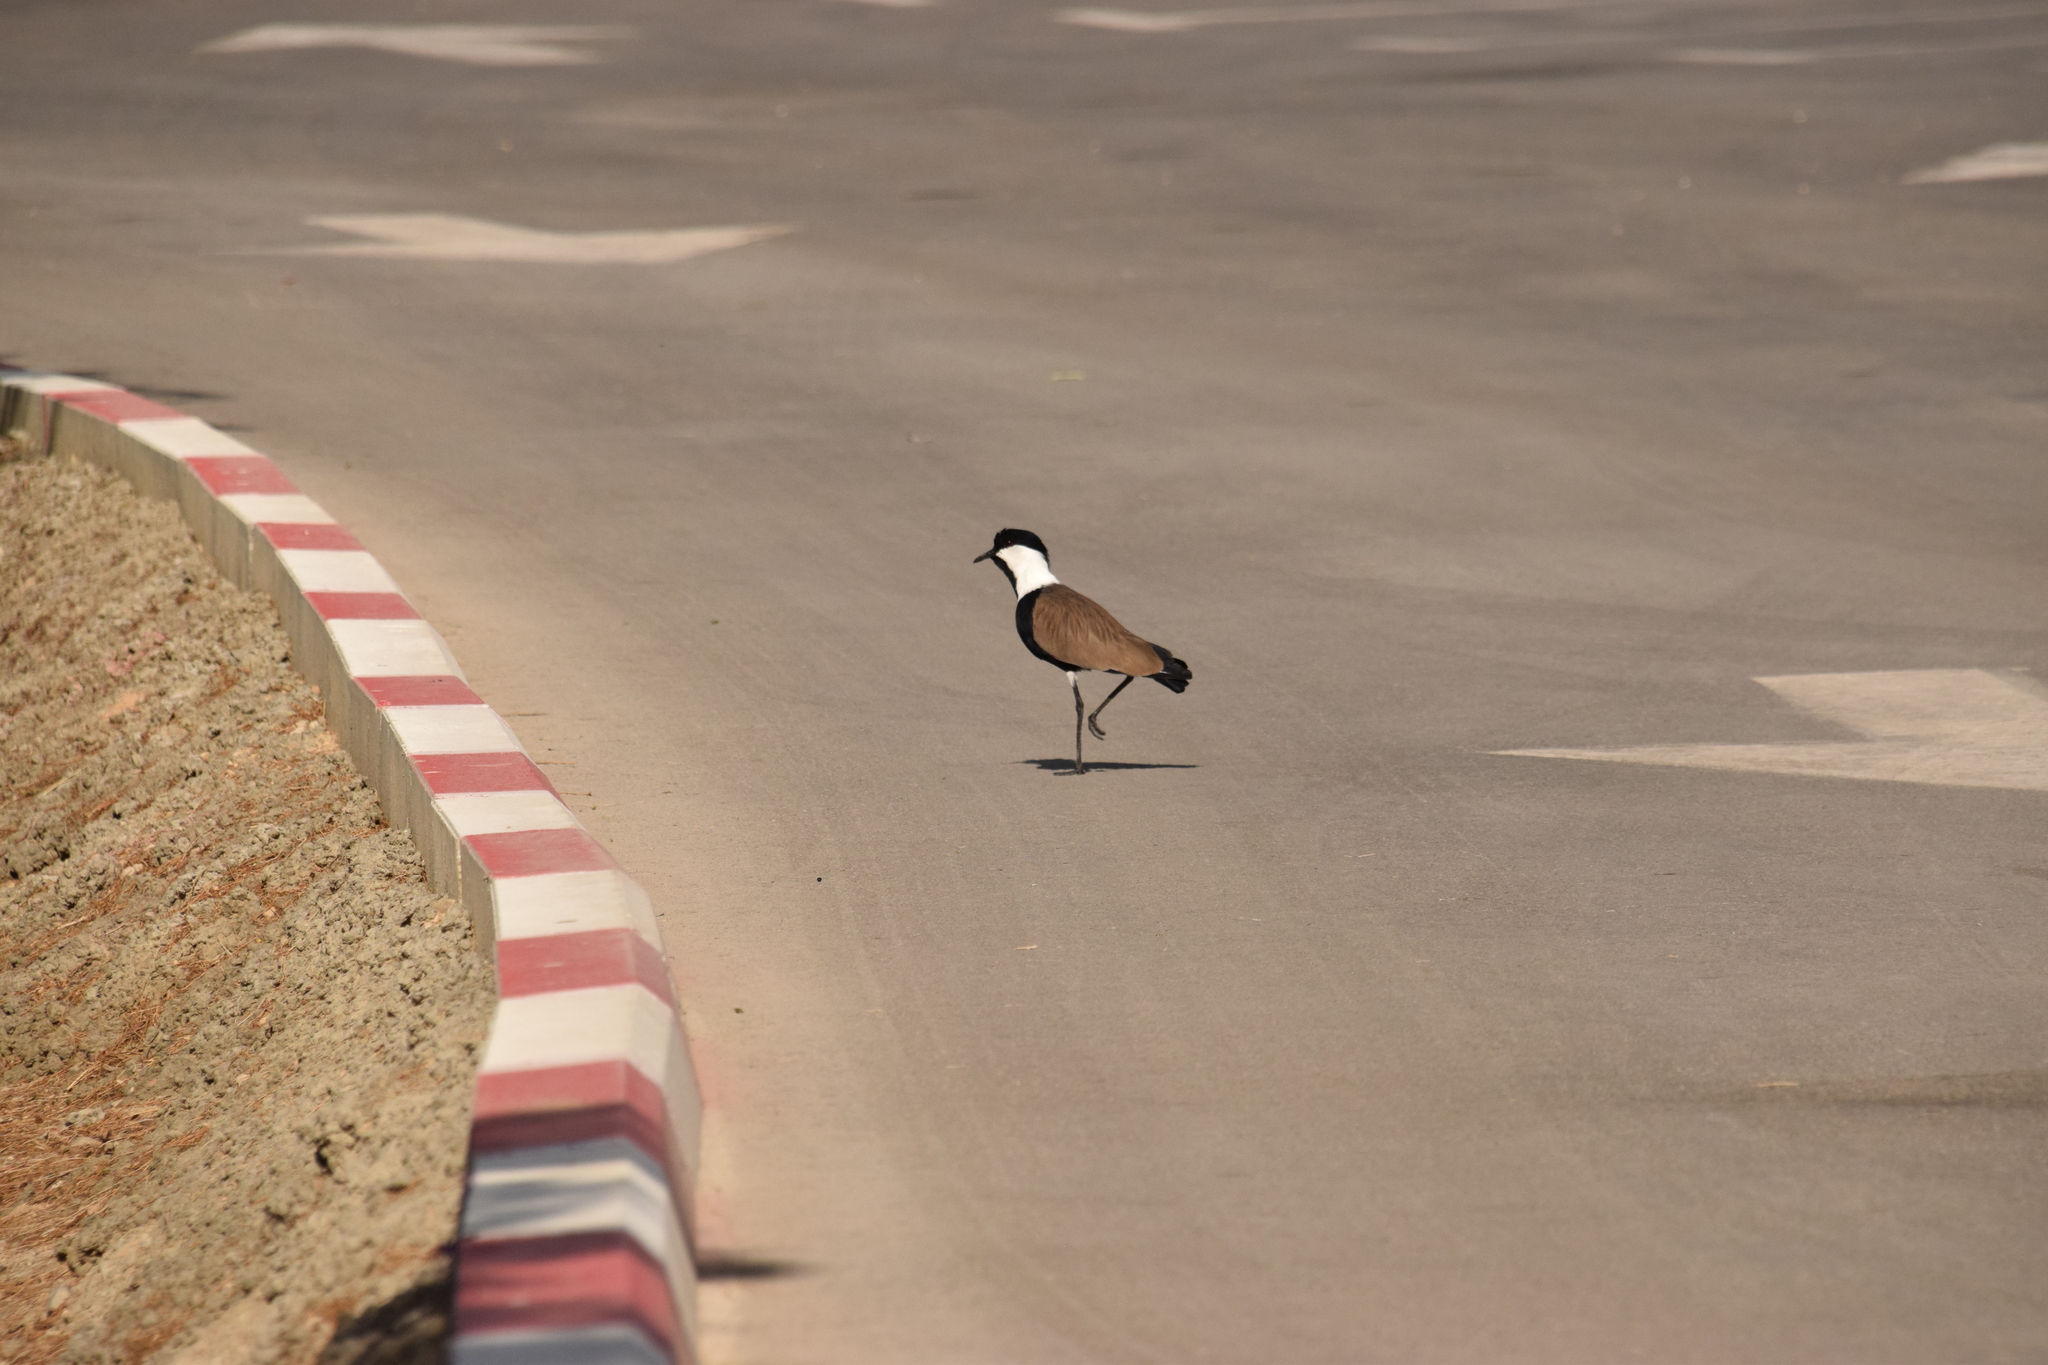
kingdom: Animalia
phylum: Chordata
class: Aves
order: Charadriiformes
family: Charadriidae
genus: Vanellus
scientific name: Vanellus spinosus
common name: Spur-winged lapwing
